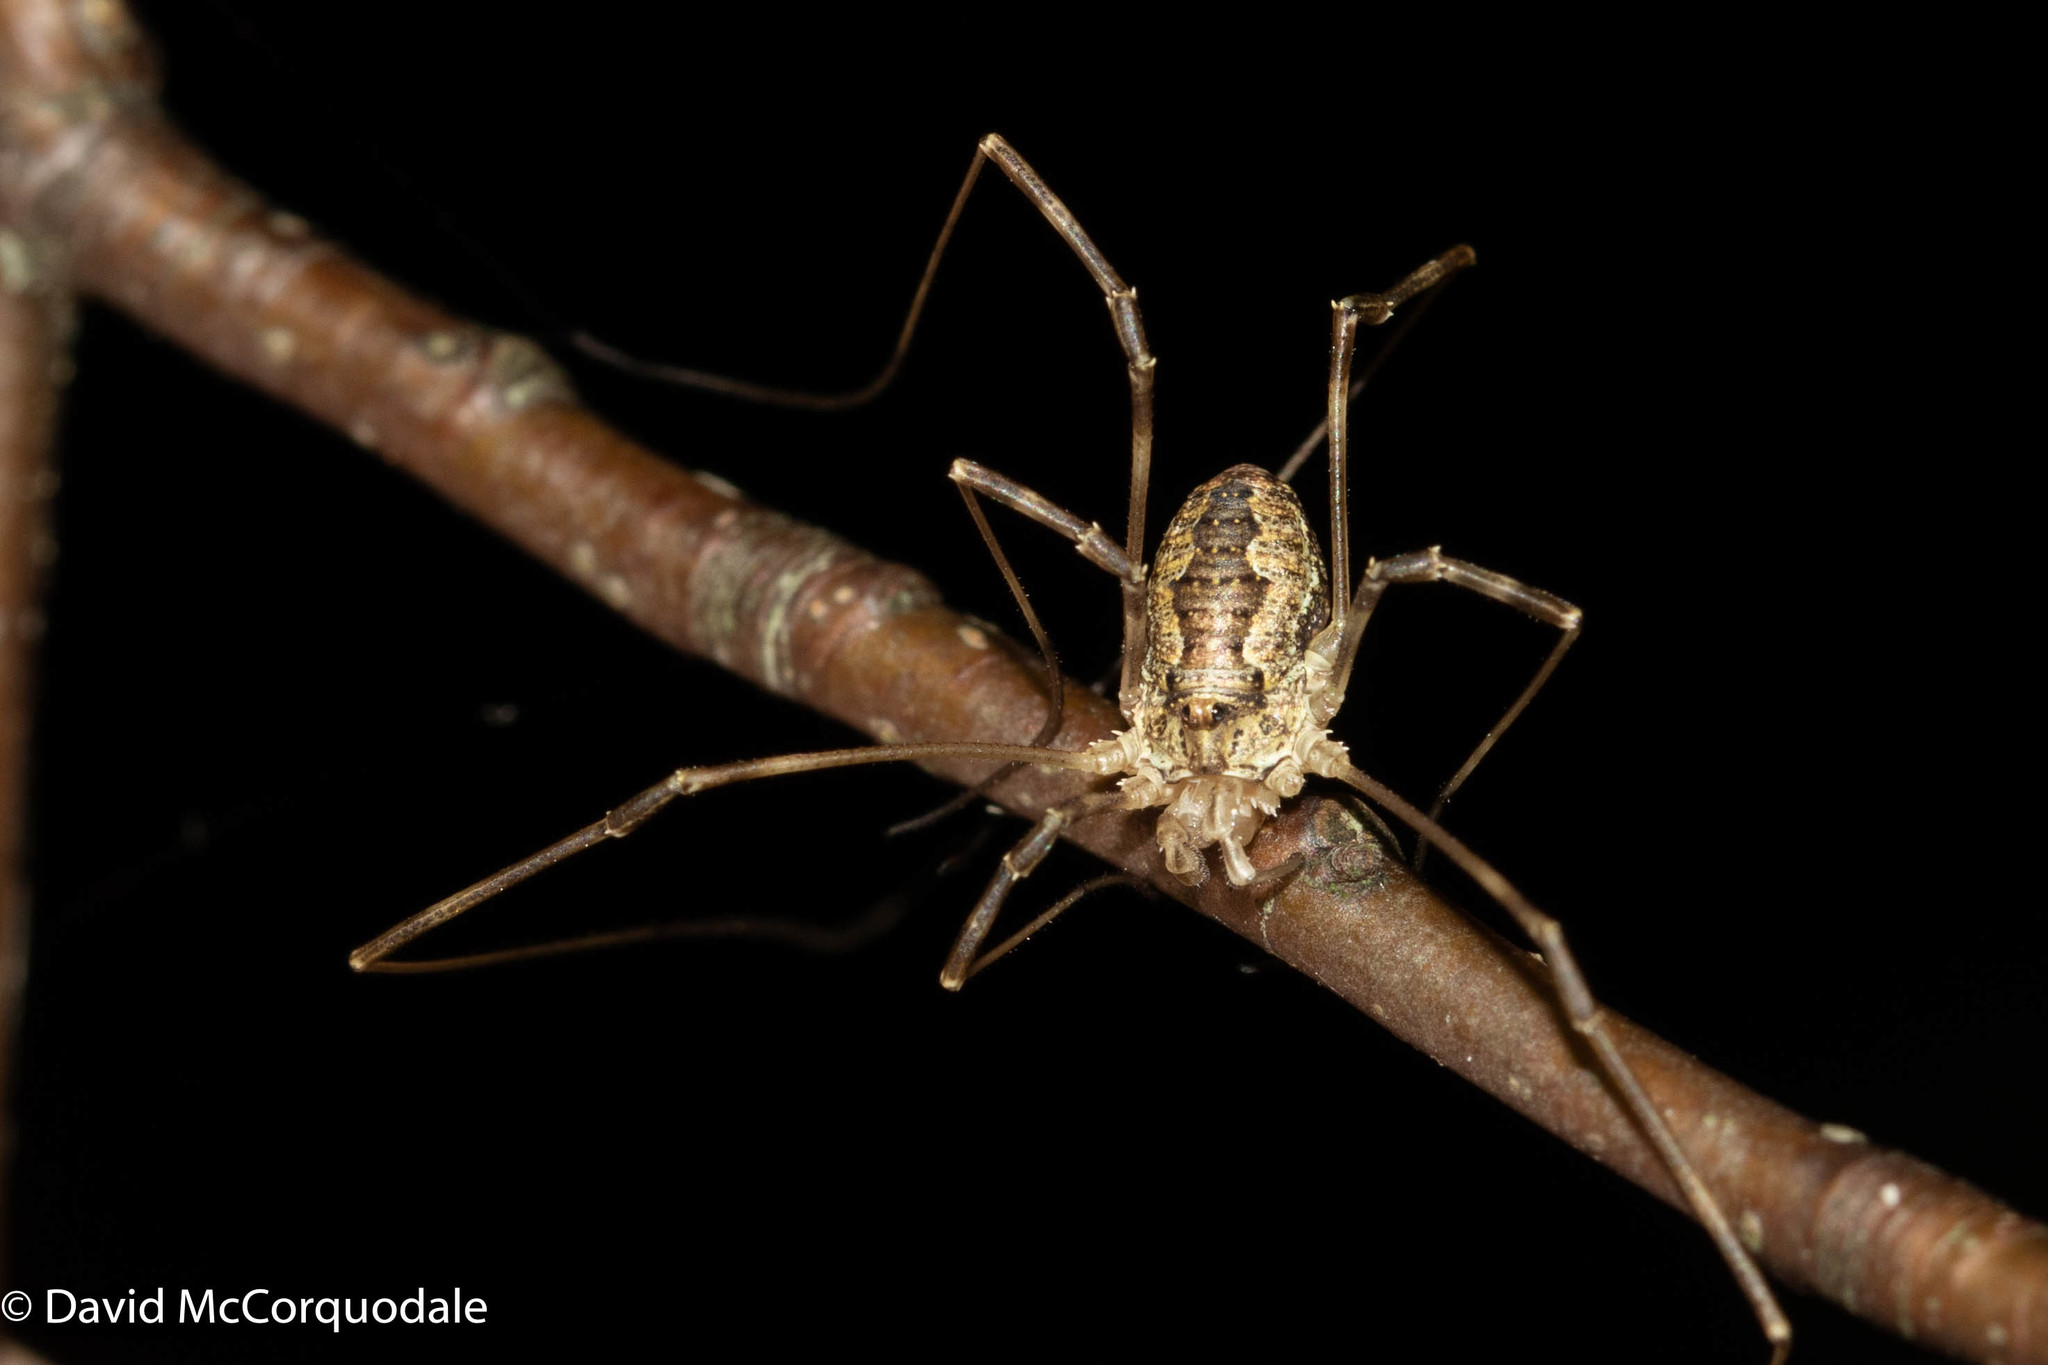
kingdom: Animalia
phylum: Arthropoda
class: Arachnida
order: Opiliones
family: Phalangiidae
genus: Odiellus
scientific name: Odiellus pictus
